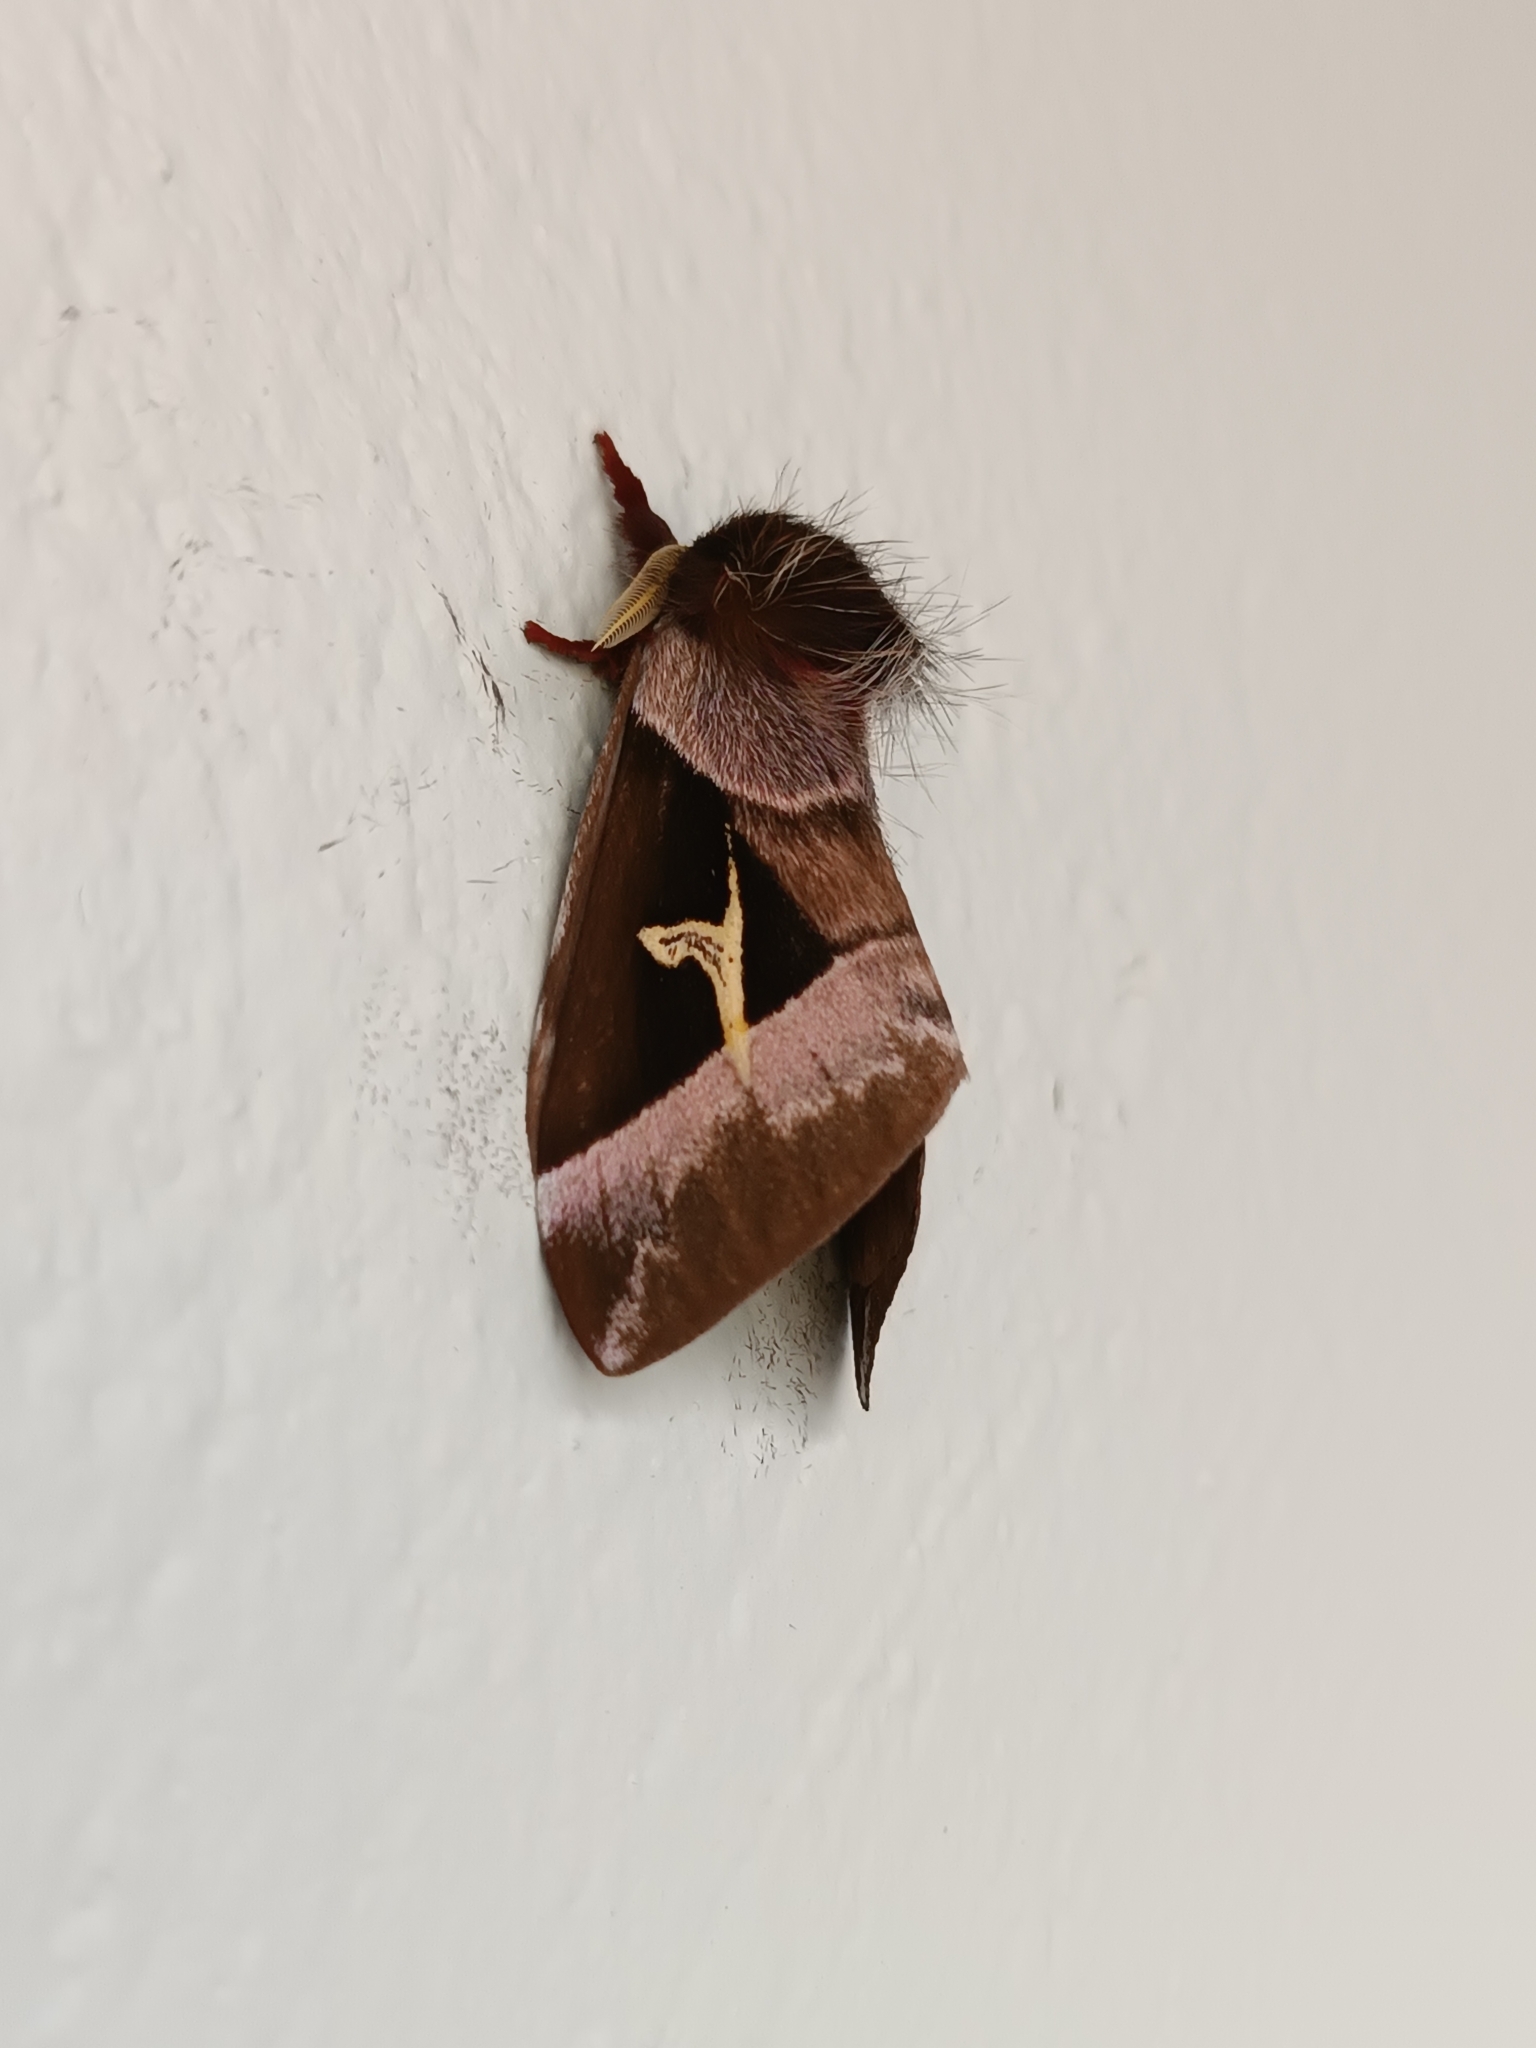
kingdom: Animalia
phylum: Arthropoda
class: Insecta
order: Lepidoptera
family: Saturniidae
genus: Dirphiopsis
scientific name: Dirphiopsis delta
